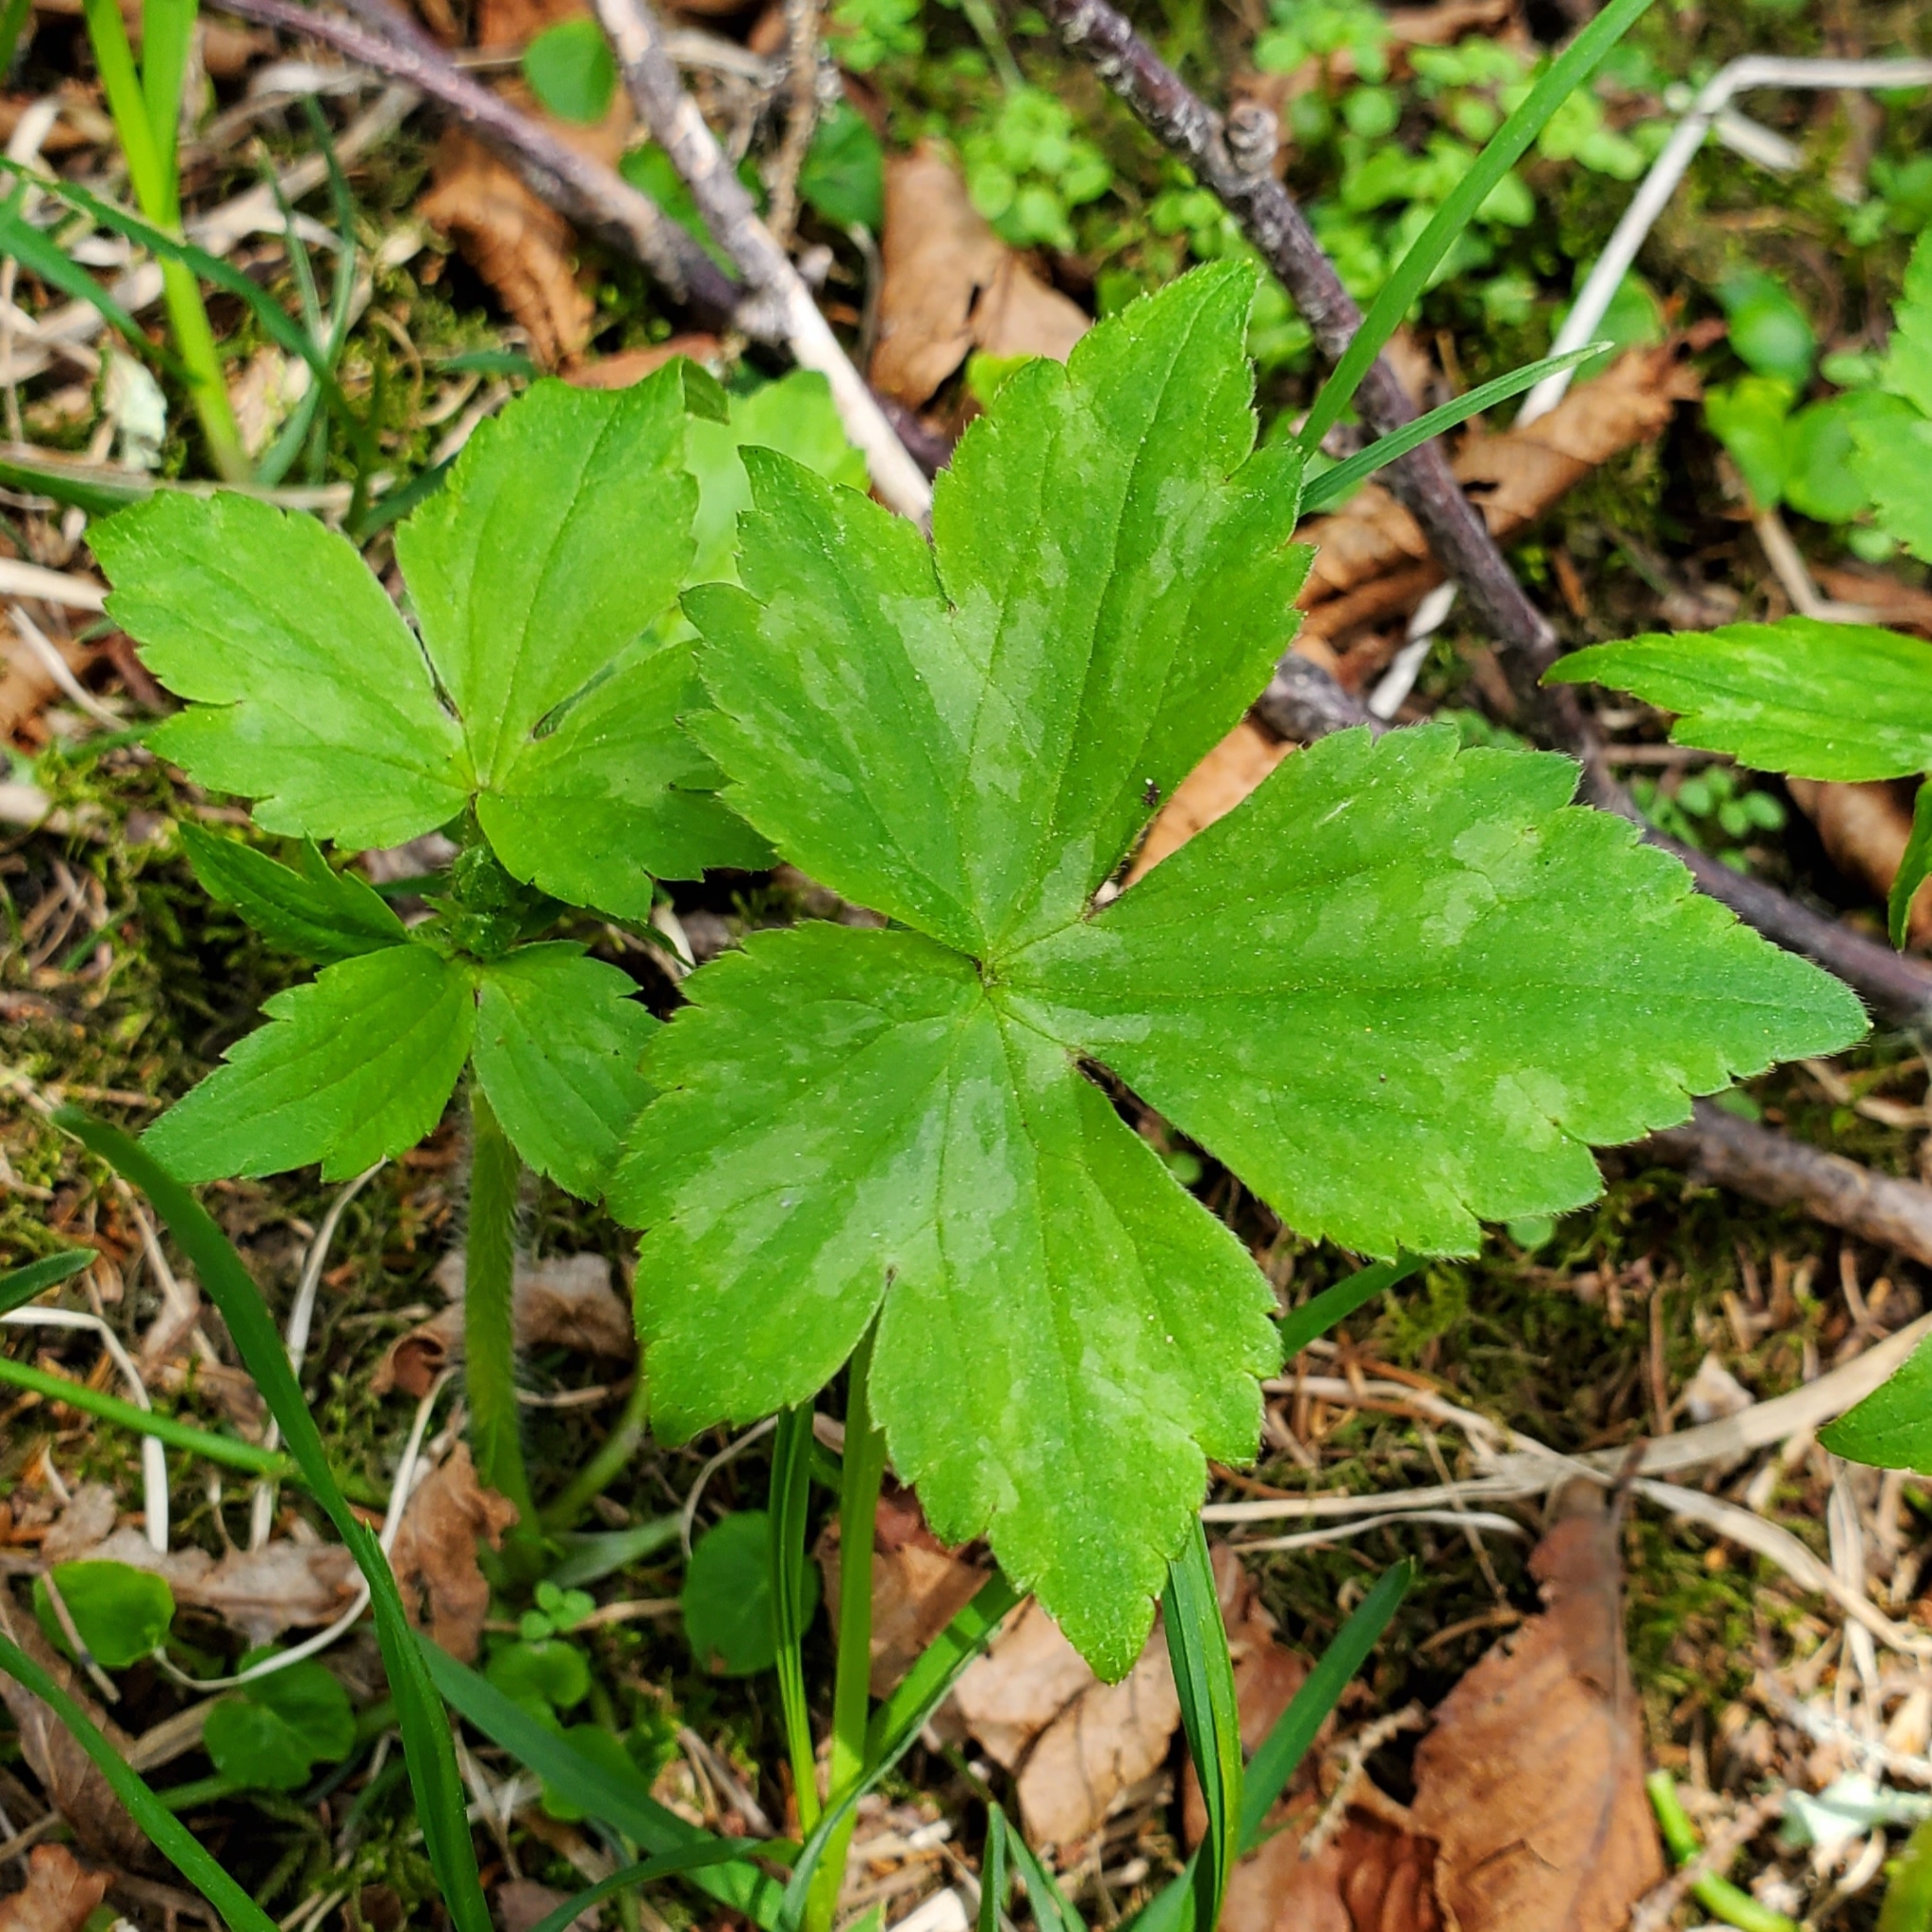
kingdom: Plantae
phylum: Tracheophyta
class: Magnoliopsida
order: Ranunculales
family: Ranunculaceae
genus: Ranunculus
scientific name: Ranunculus recurvatus
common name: Blisterwort
